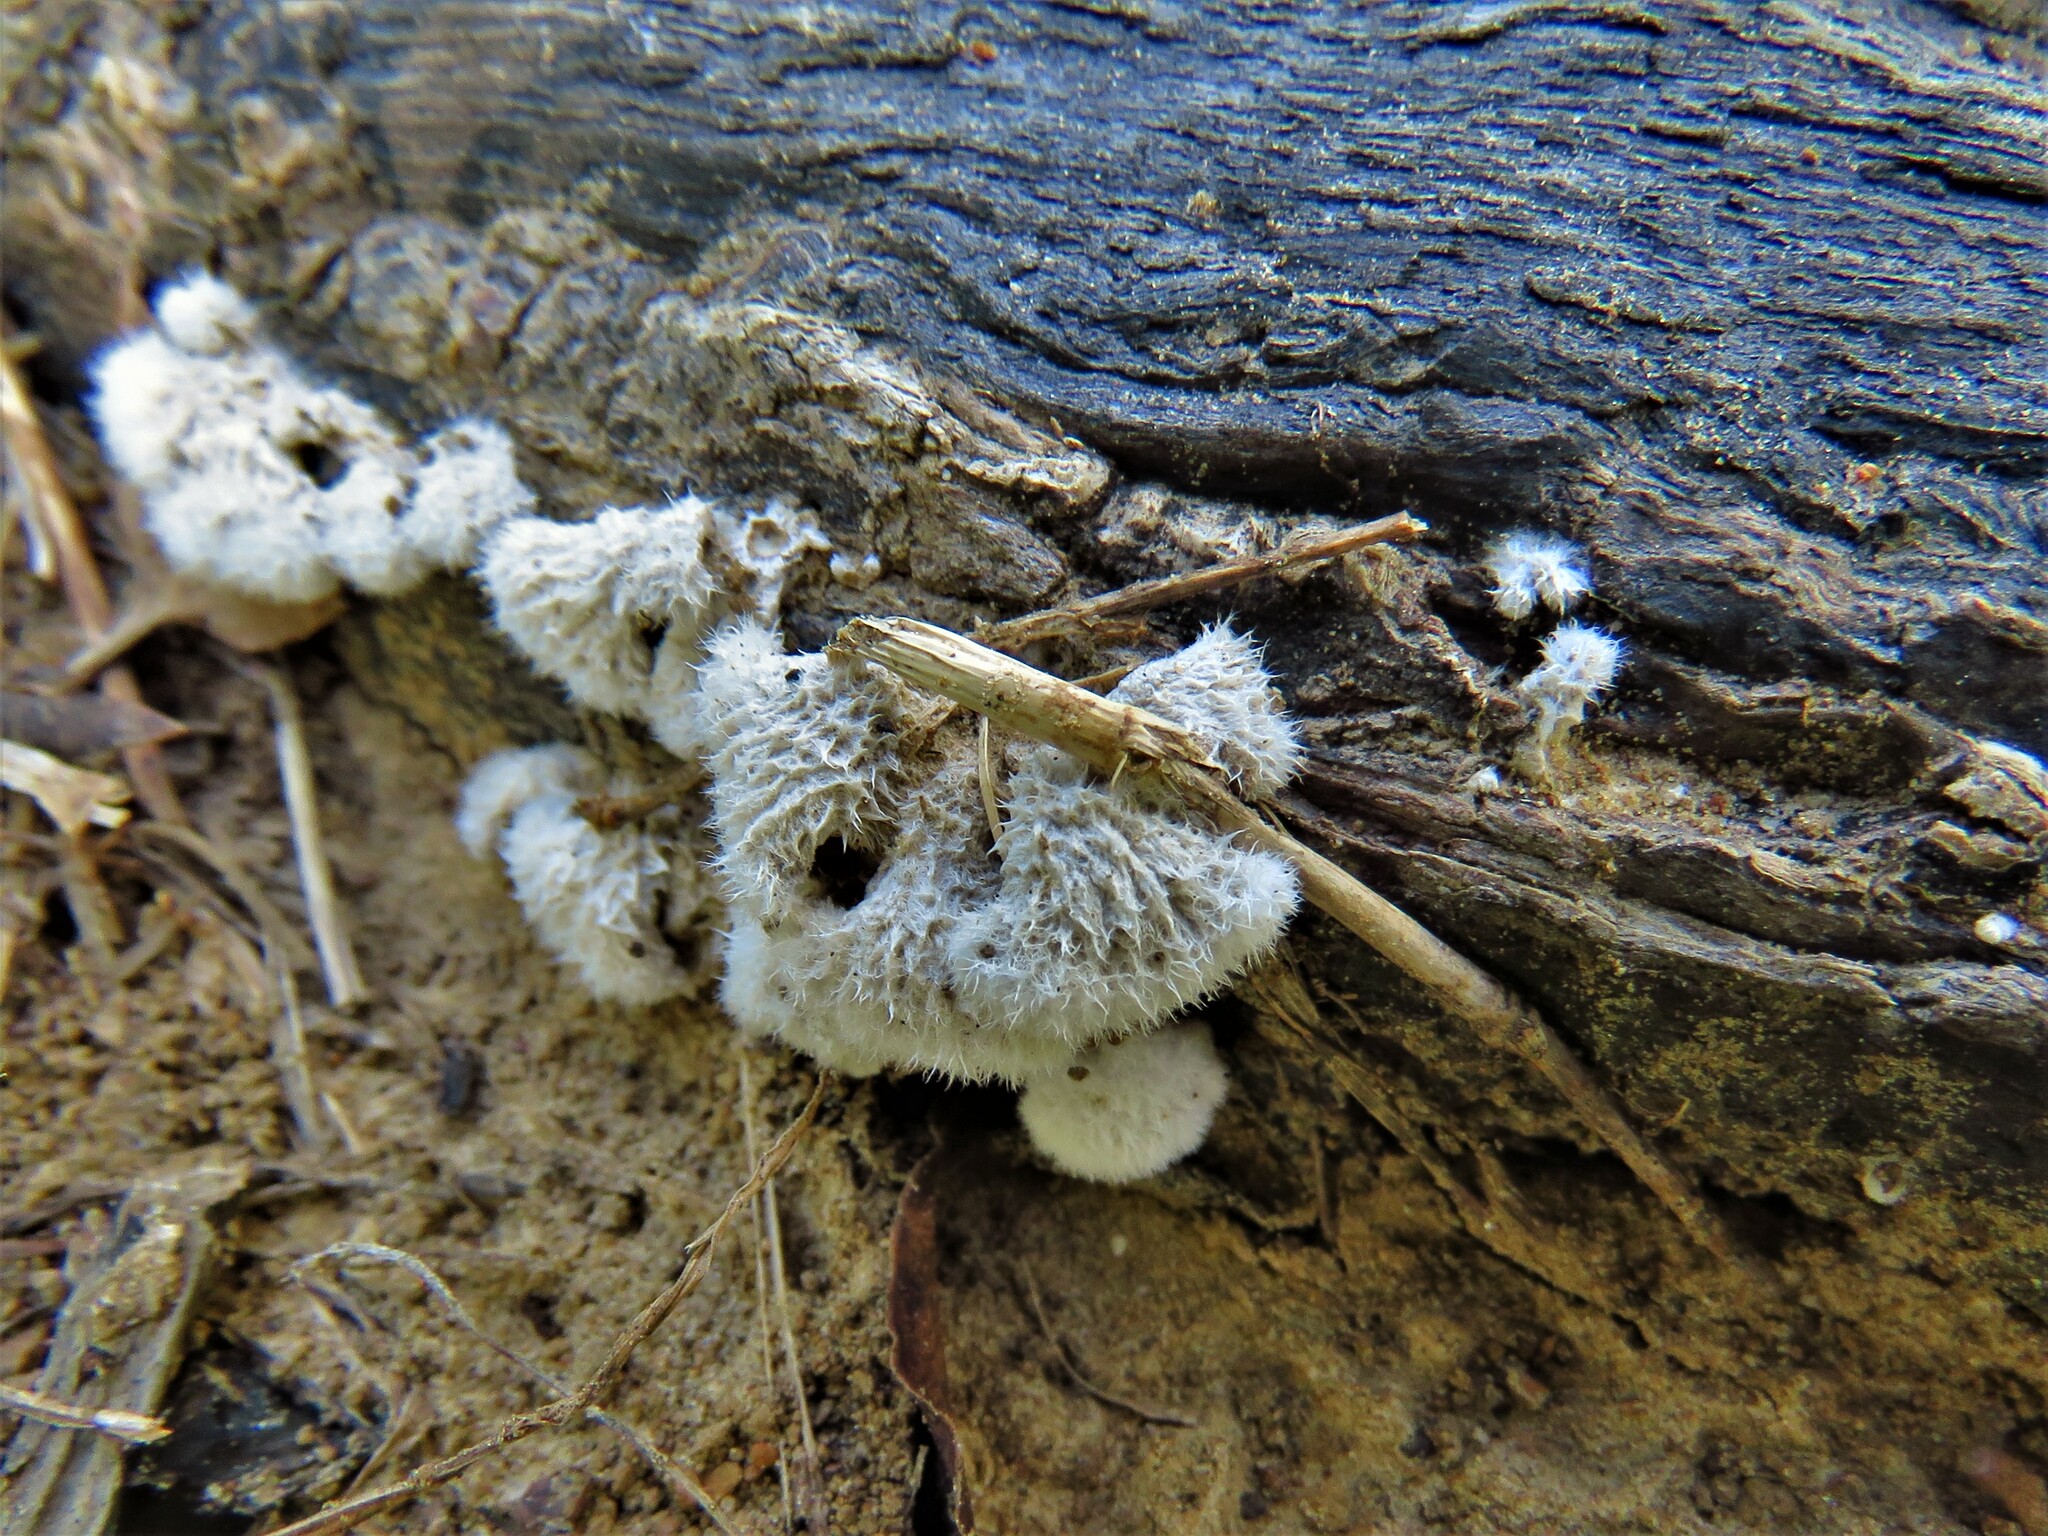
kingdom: Fungi
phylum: Basidiomycota
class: Agaricomycetes
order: Agaricales
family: Schizophyllaceae
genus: Schizophyllum
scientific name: Schizophyllum commune
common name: Common porecrust
